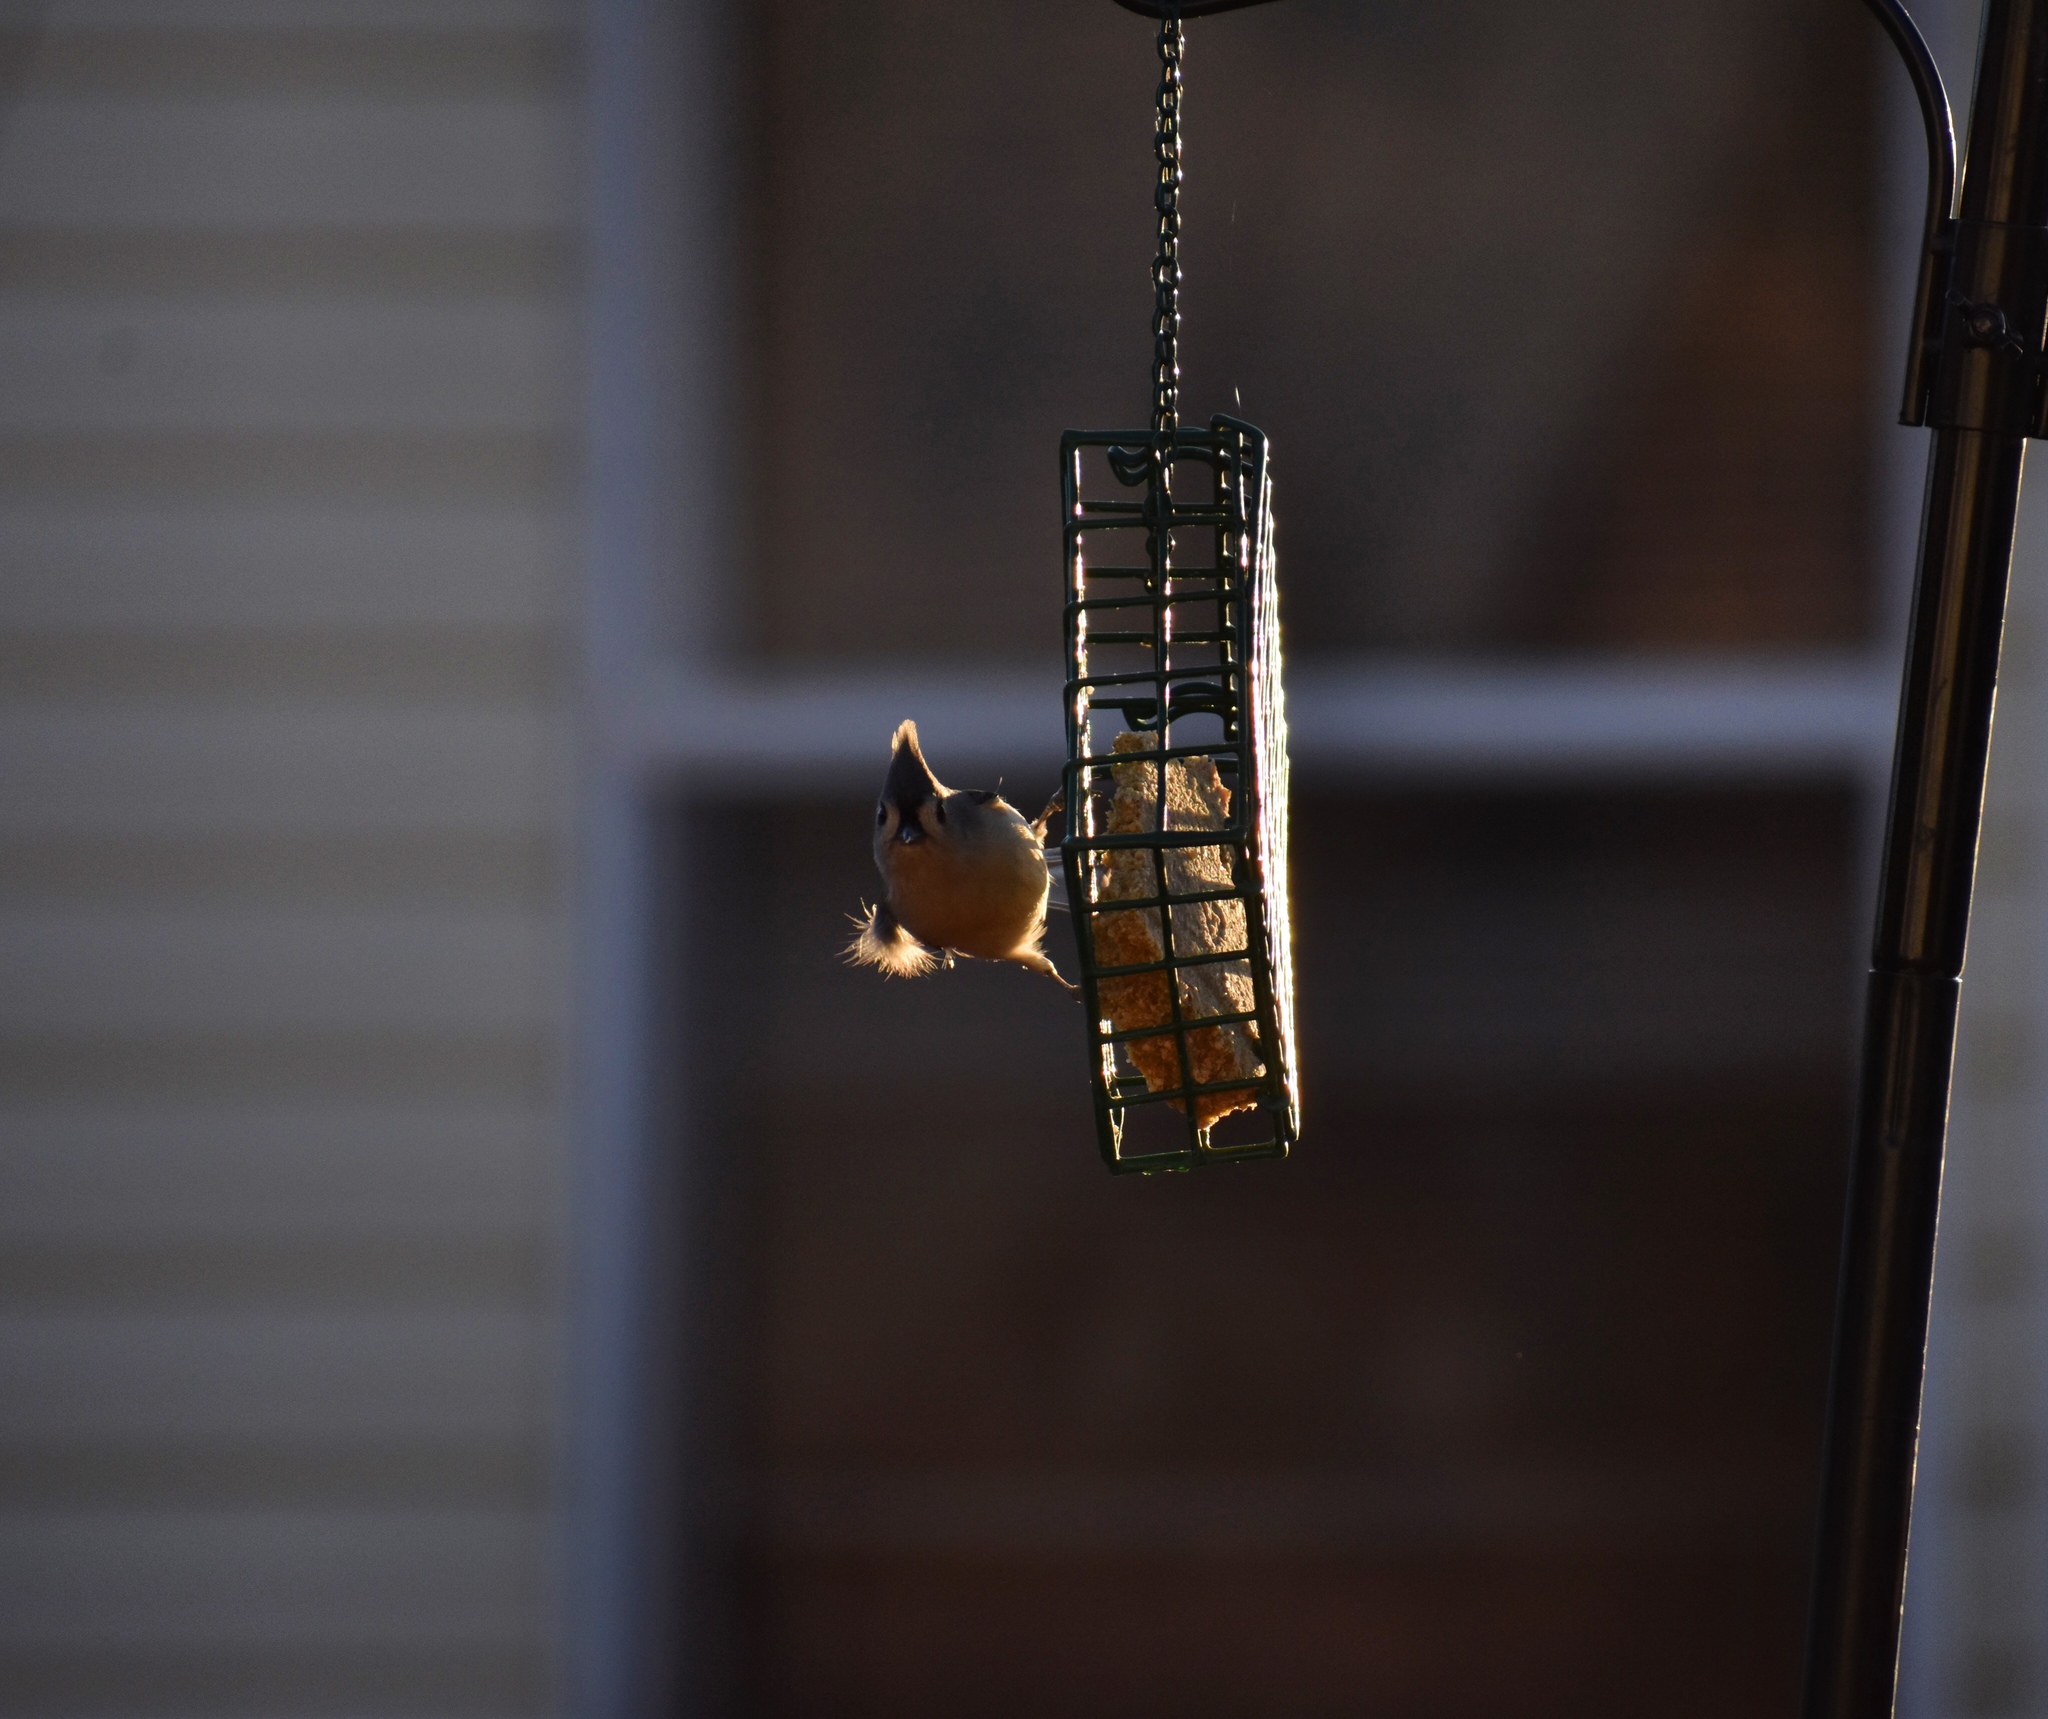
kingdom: Animalia
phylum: Chordata
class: Aves
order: Passeriformes
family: Paridae
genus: Baeolophus
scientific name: Baeolophus bicolor
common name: Tufted titmouse
